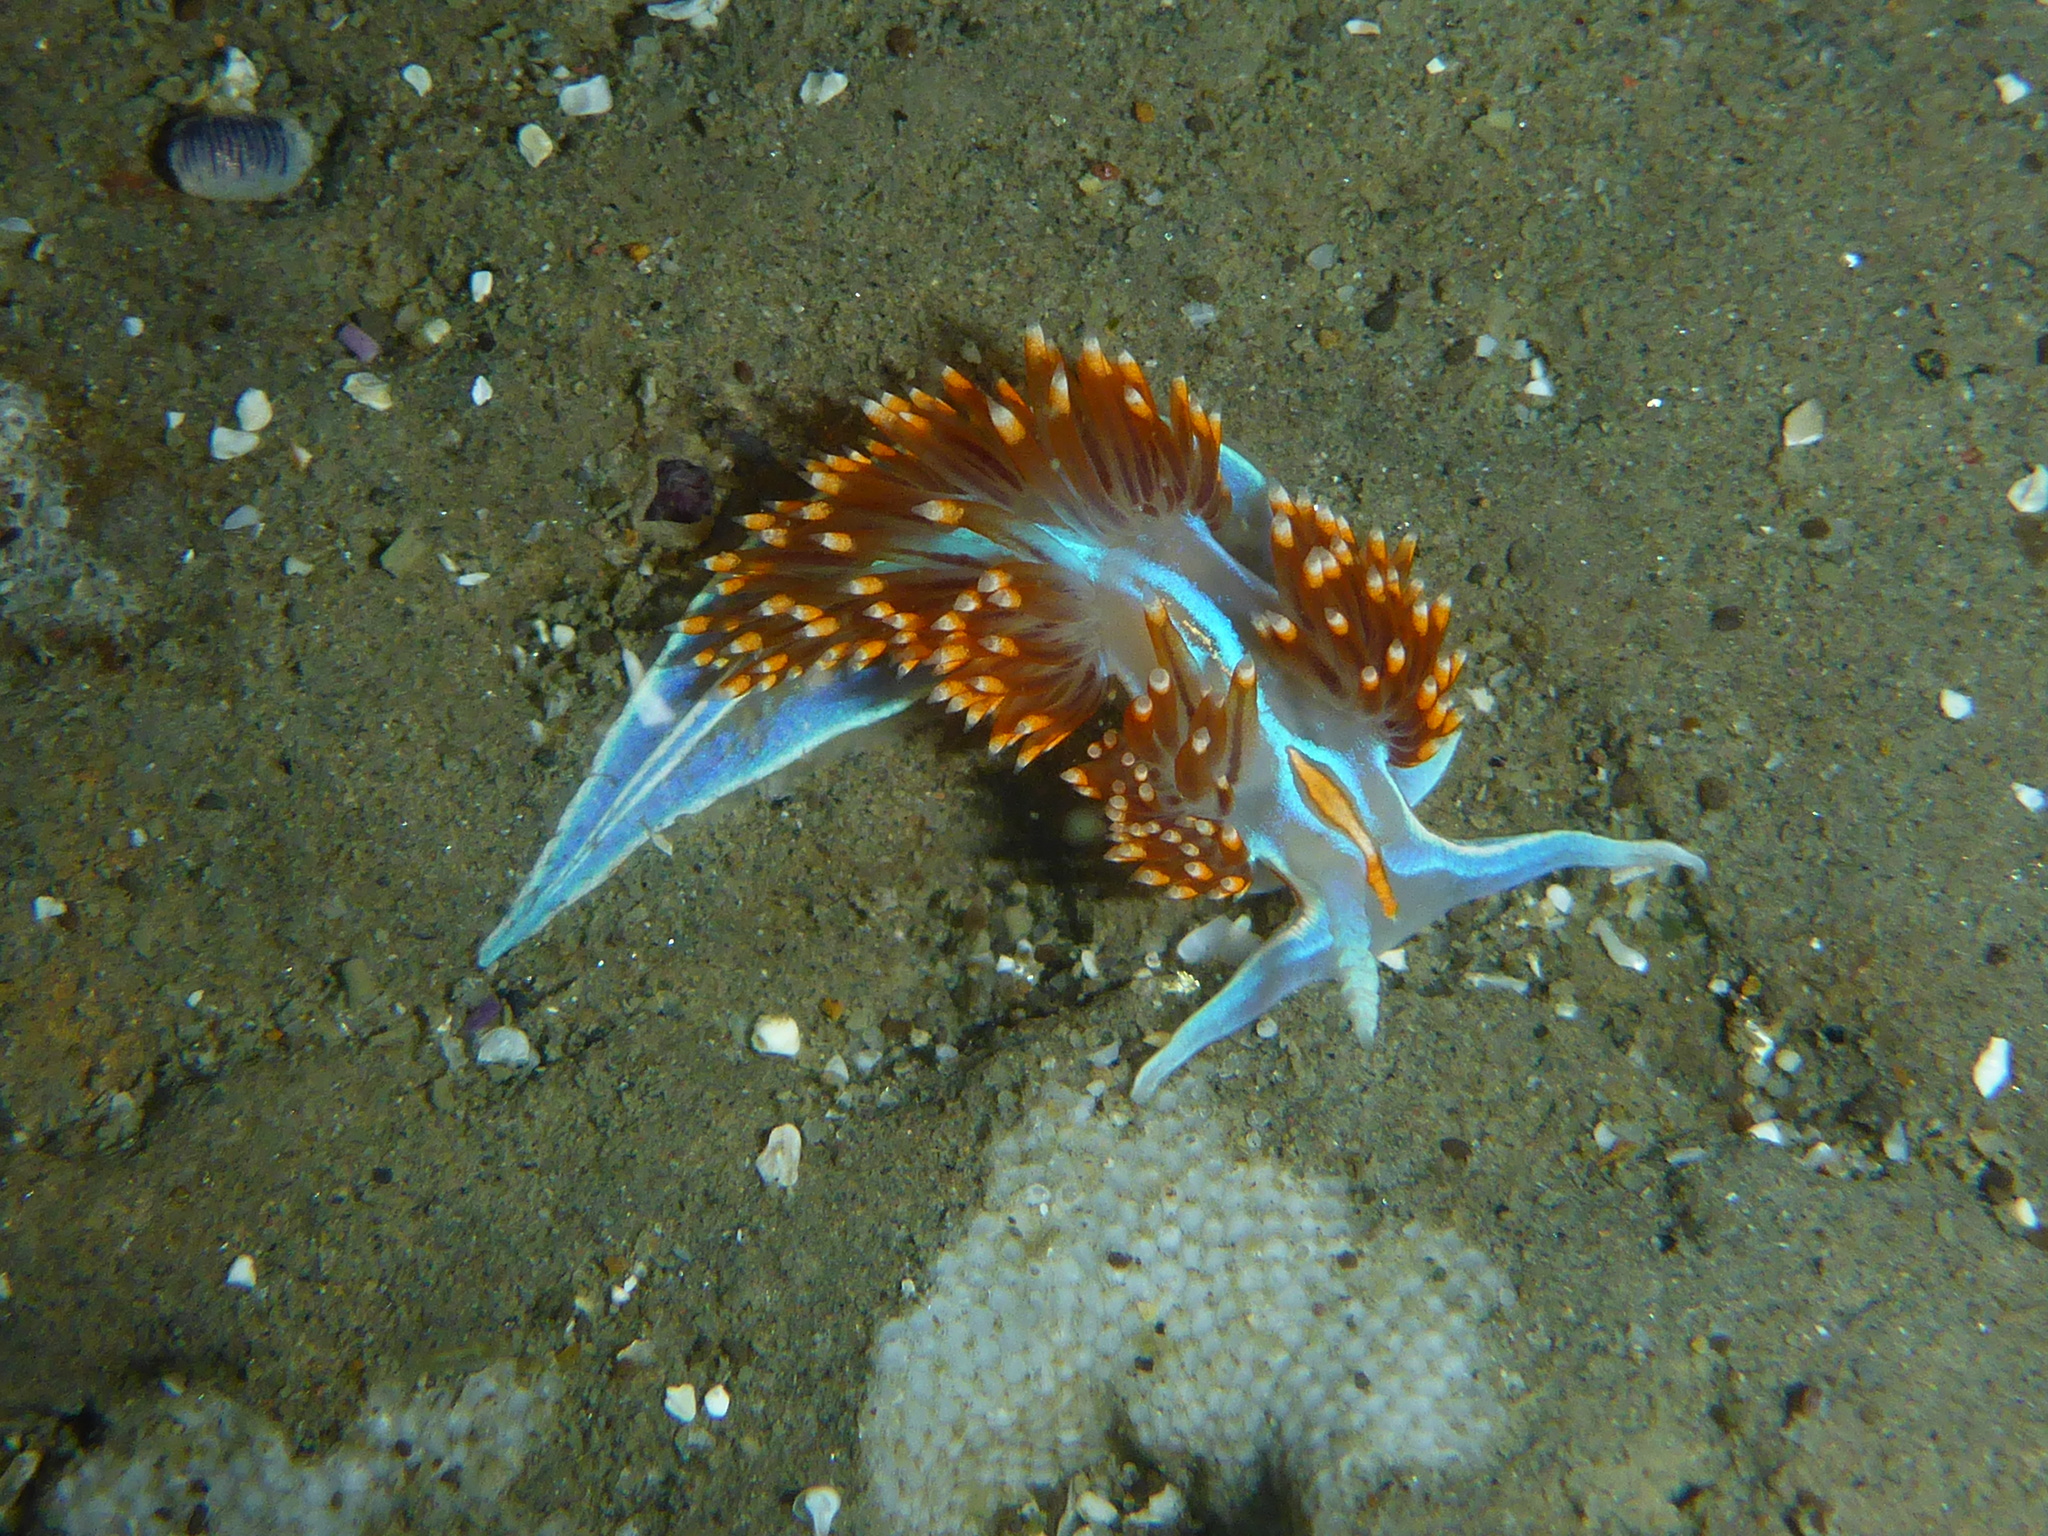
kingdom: Animalia
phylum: Mollusca
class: Gastropoda
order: Nudibranchia
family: Myrrhinidae
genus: Hermissenda
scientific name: Hermissenda opalescens
